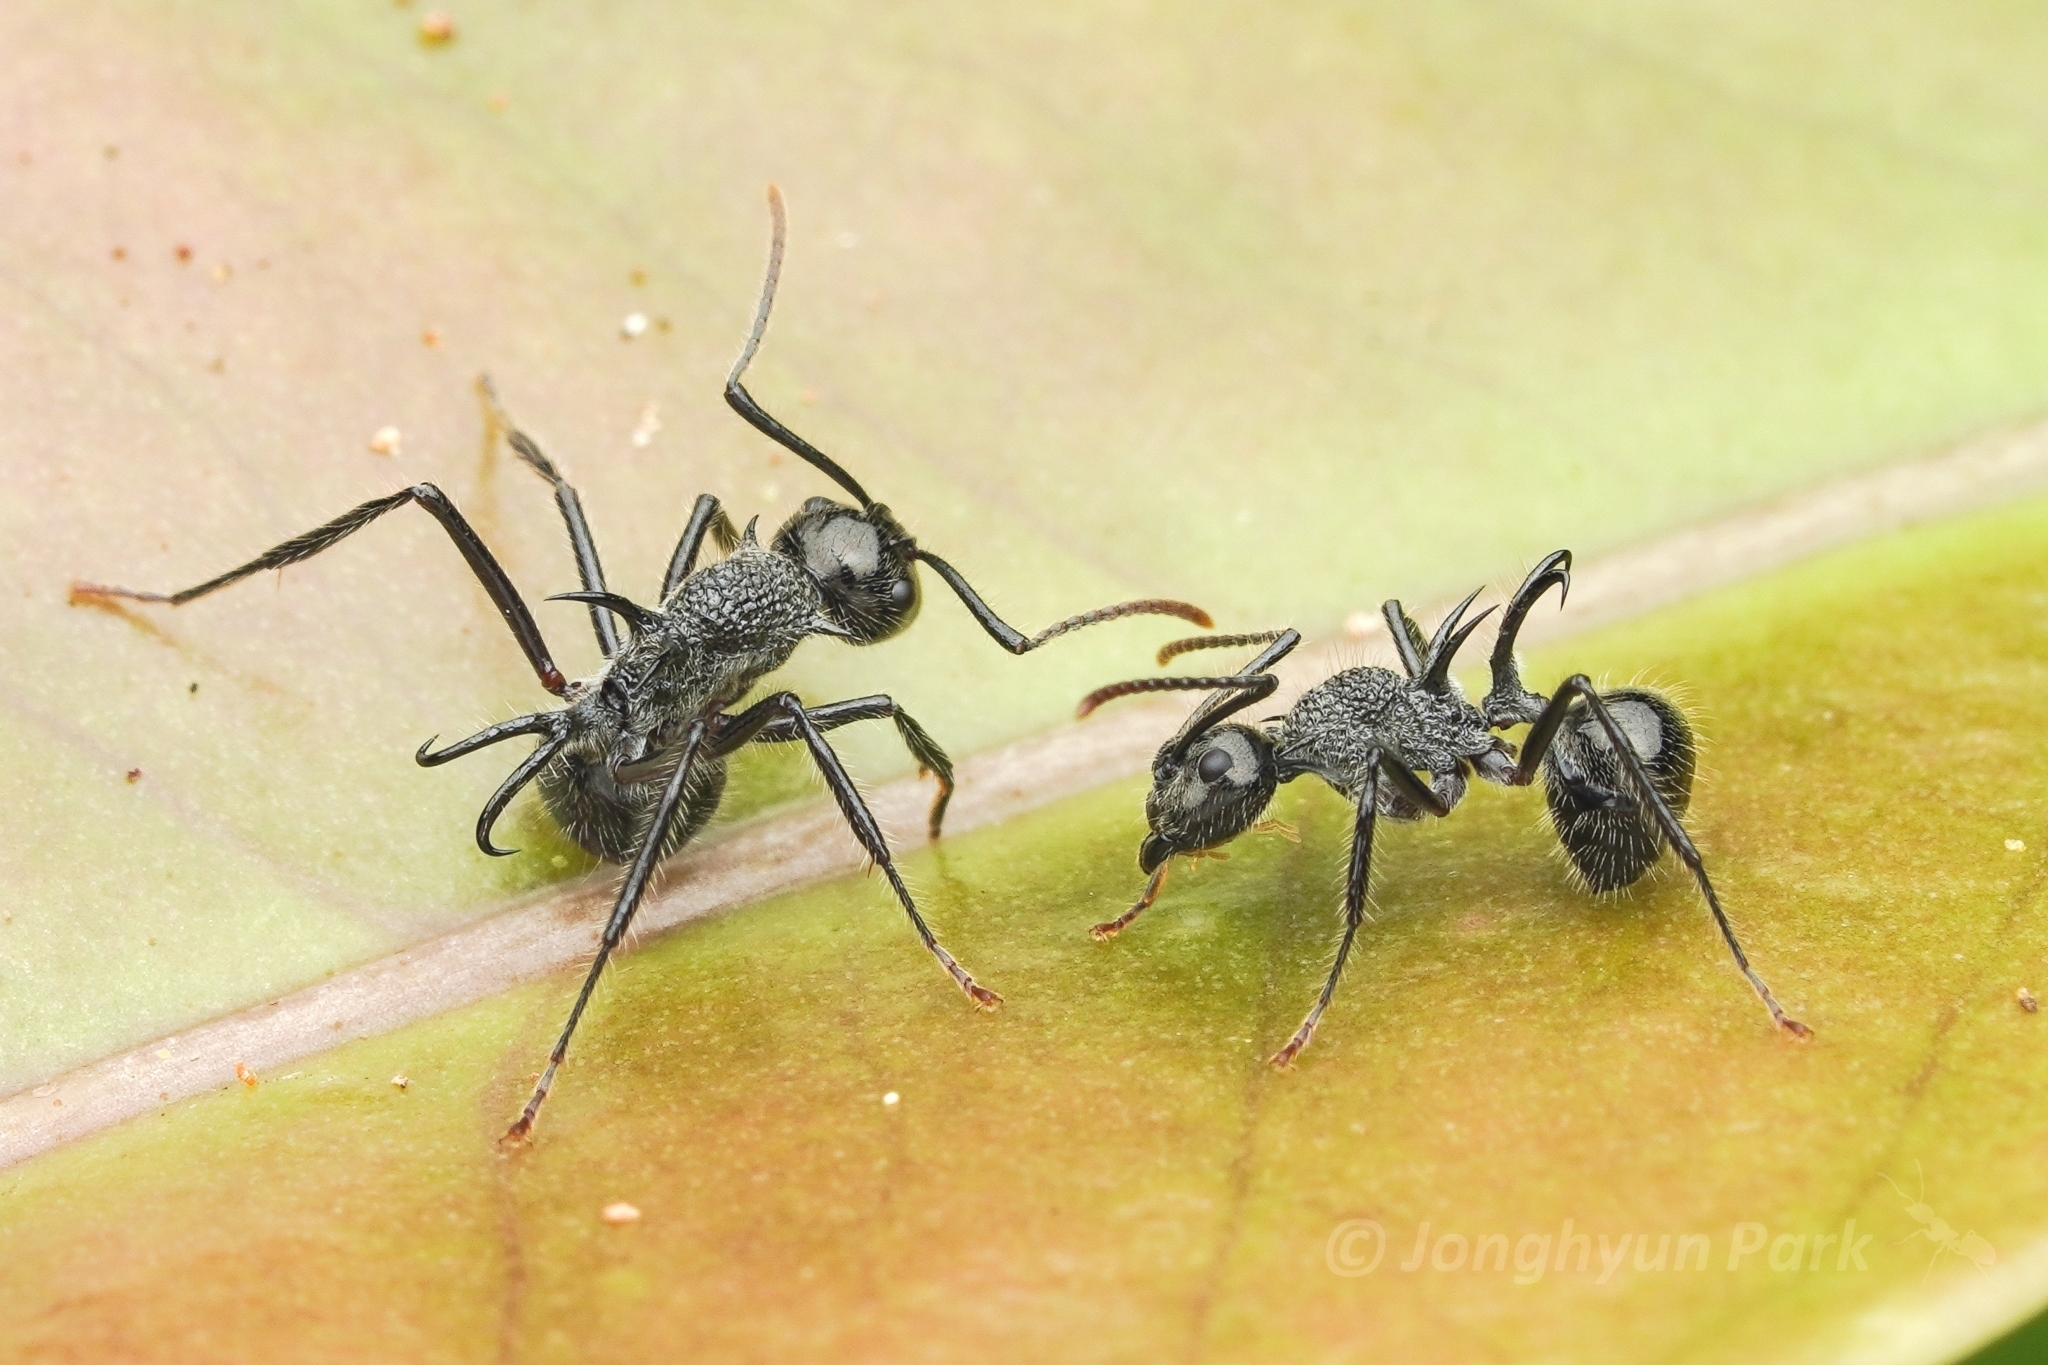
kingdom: Animalia
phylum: Arthropoda
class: Insecta
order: Hymenoptera
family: Formicidae
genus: Polyrhachis
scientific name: Polyrhachis furcata
